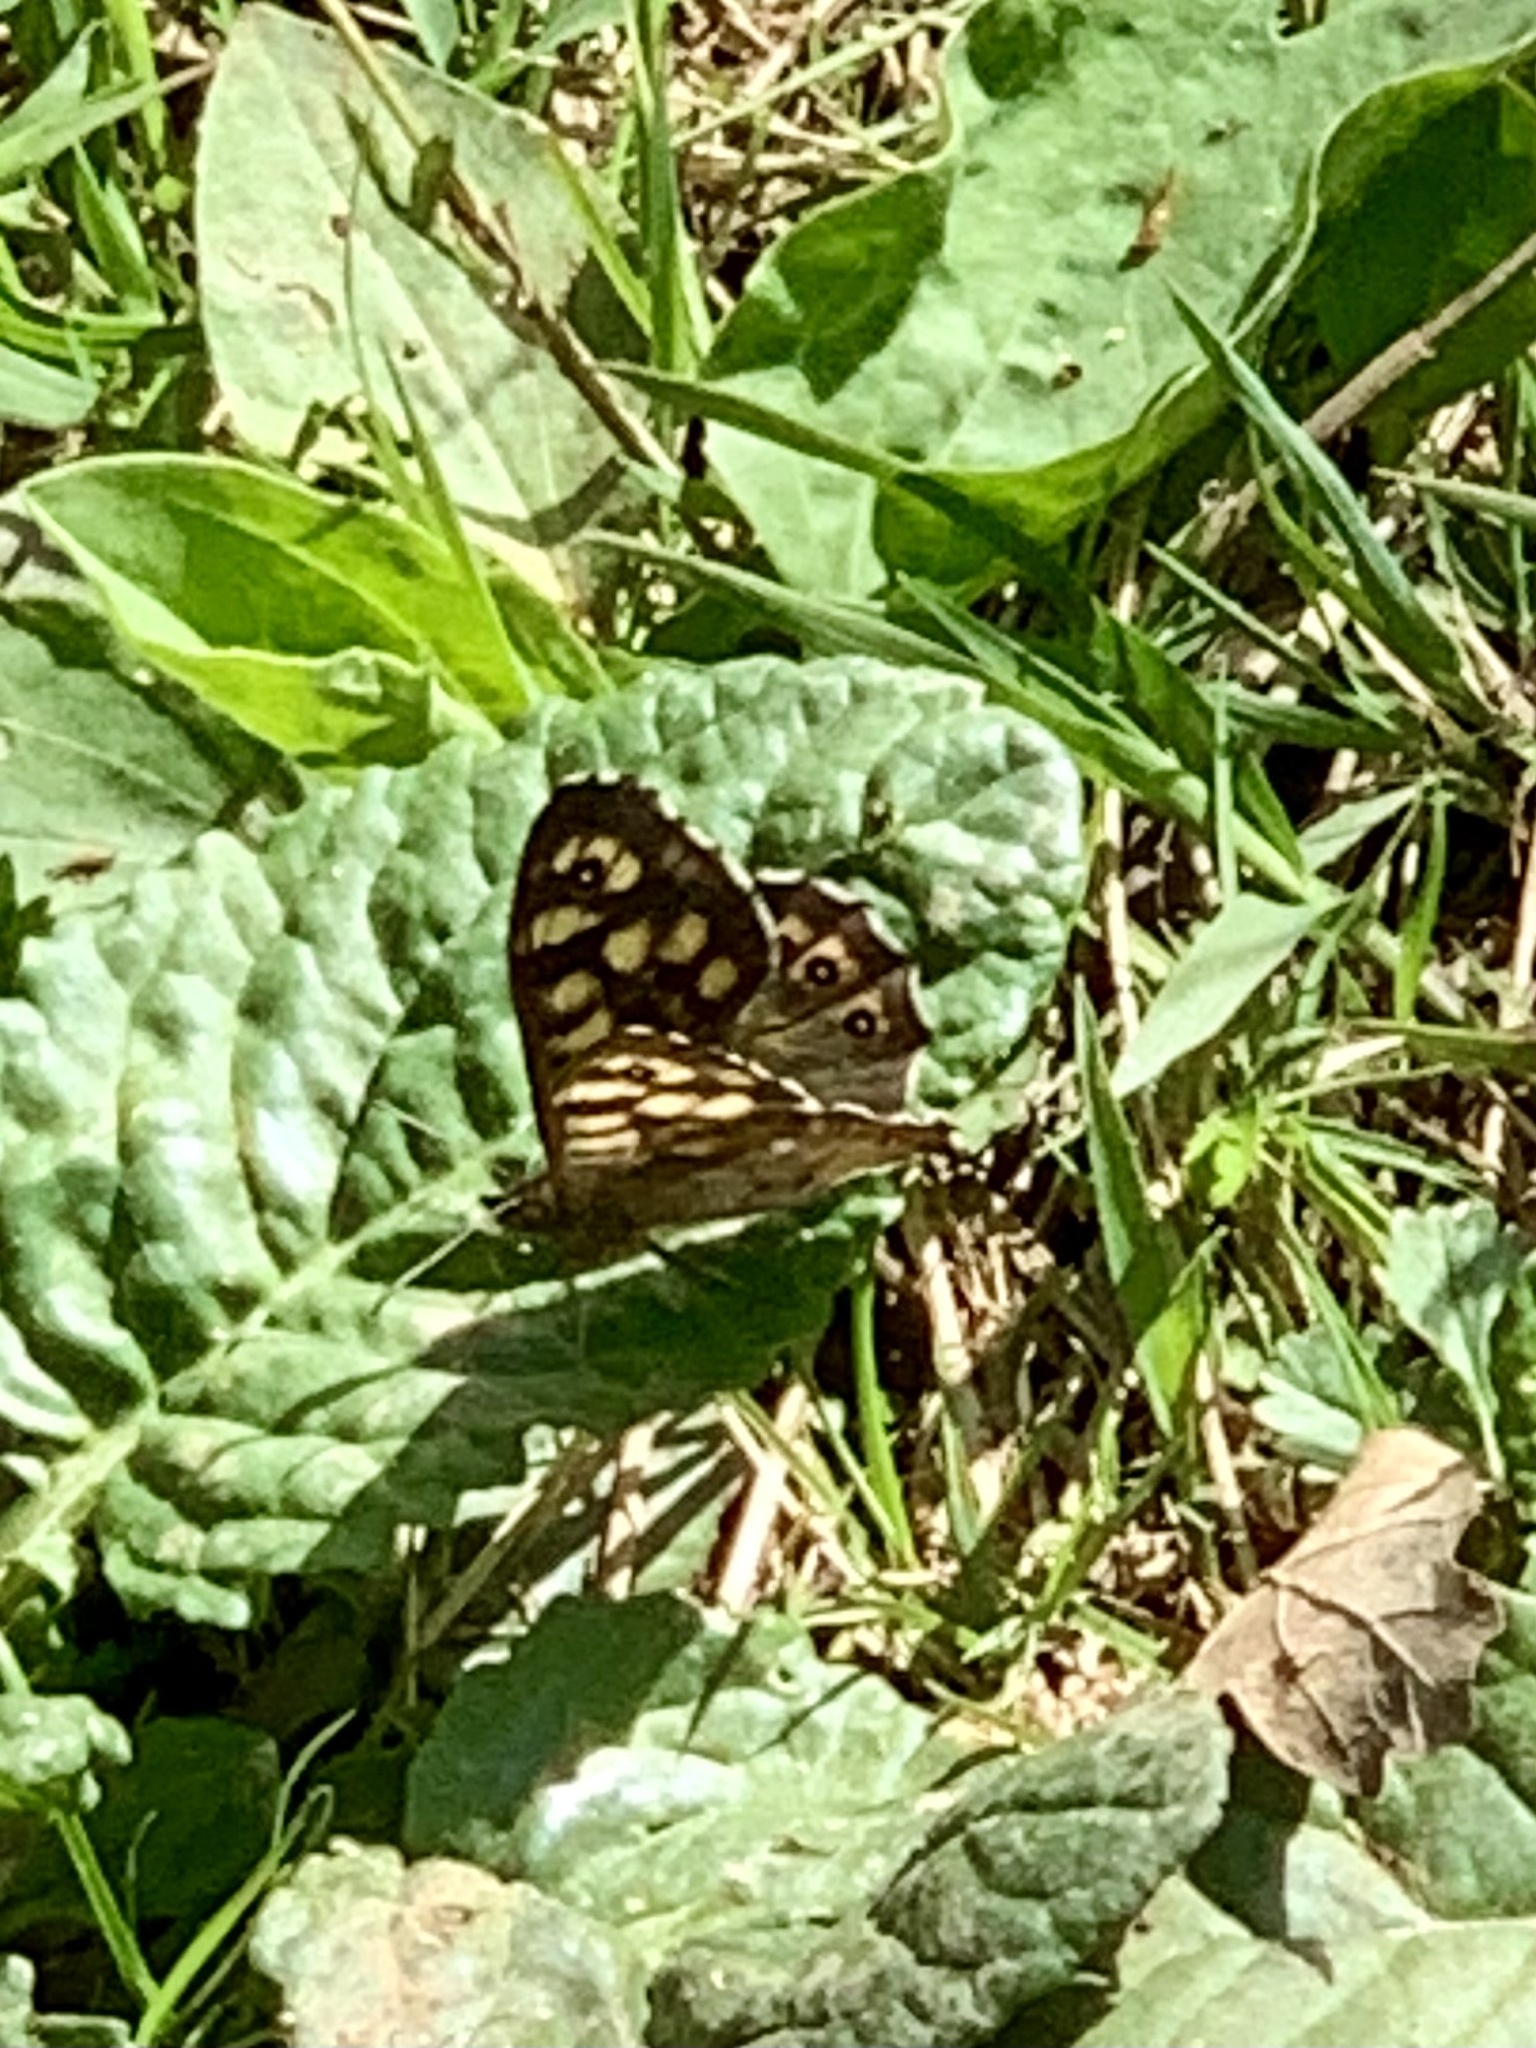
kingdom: Animalia
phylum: Arthropoda
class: Insecta
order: Lepidoptera
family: Nymphalidae
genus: Pararge
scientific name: Pararge aegeria
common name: Speckled wood
